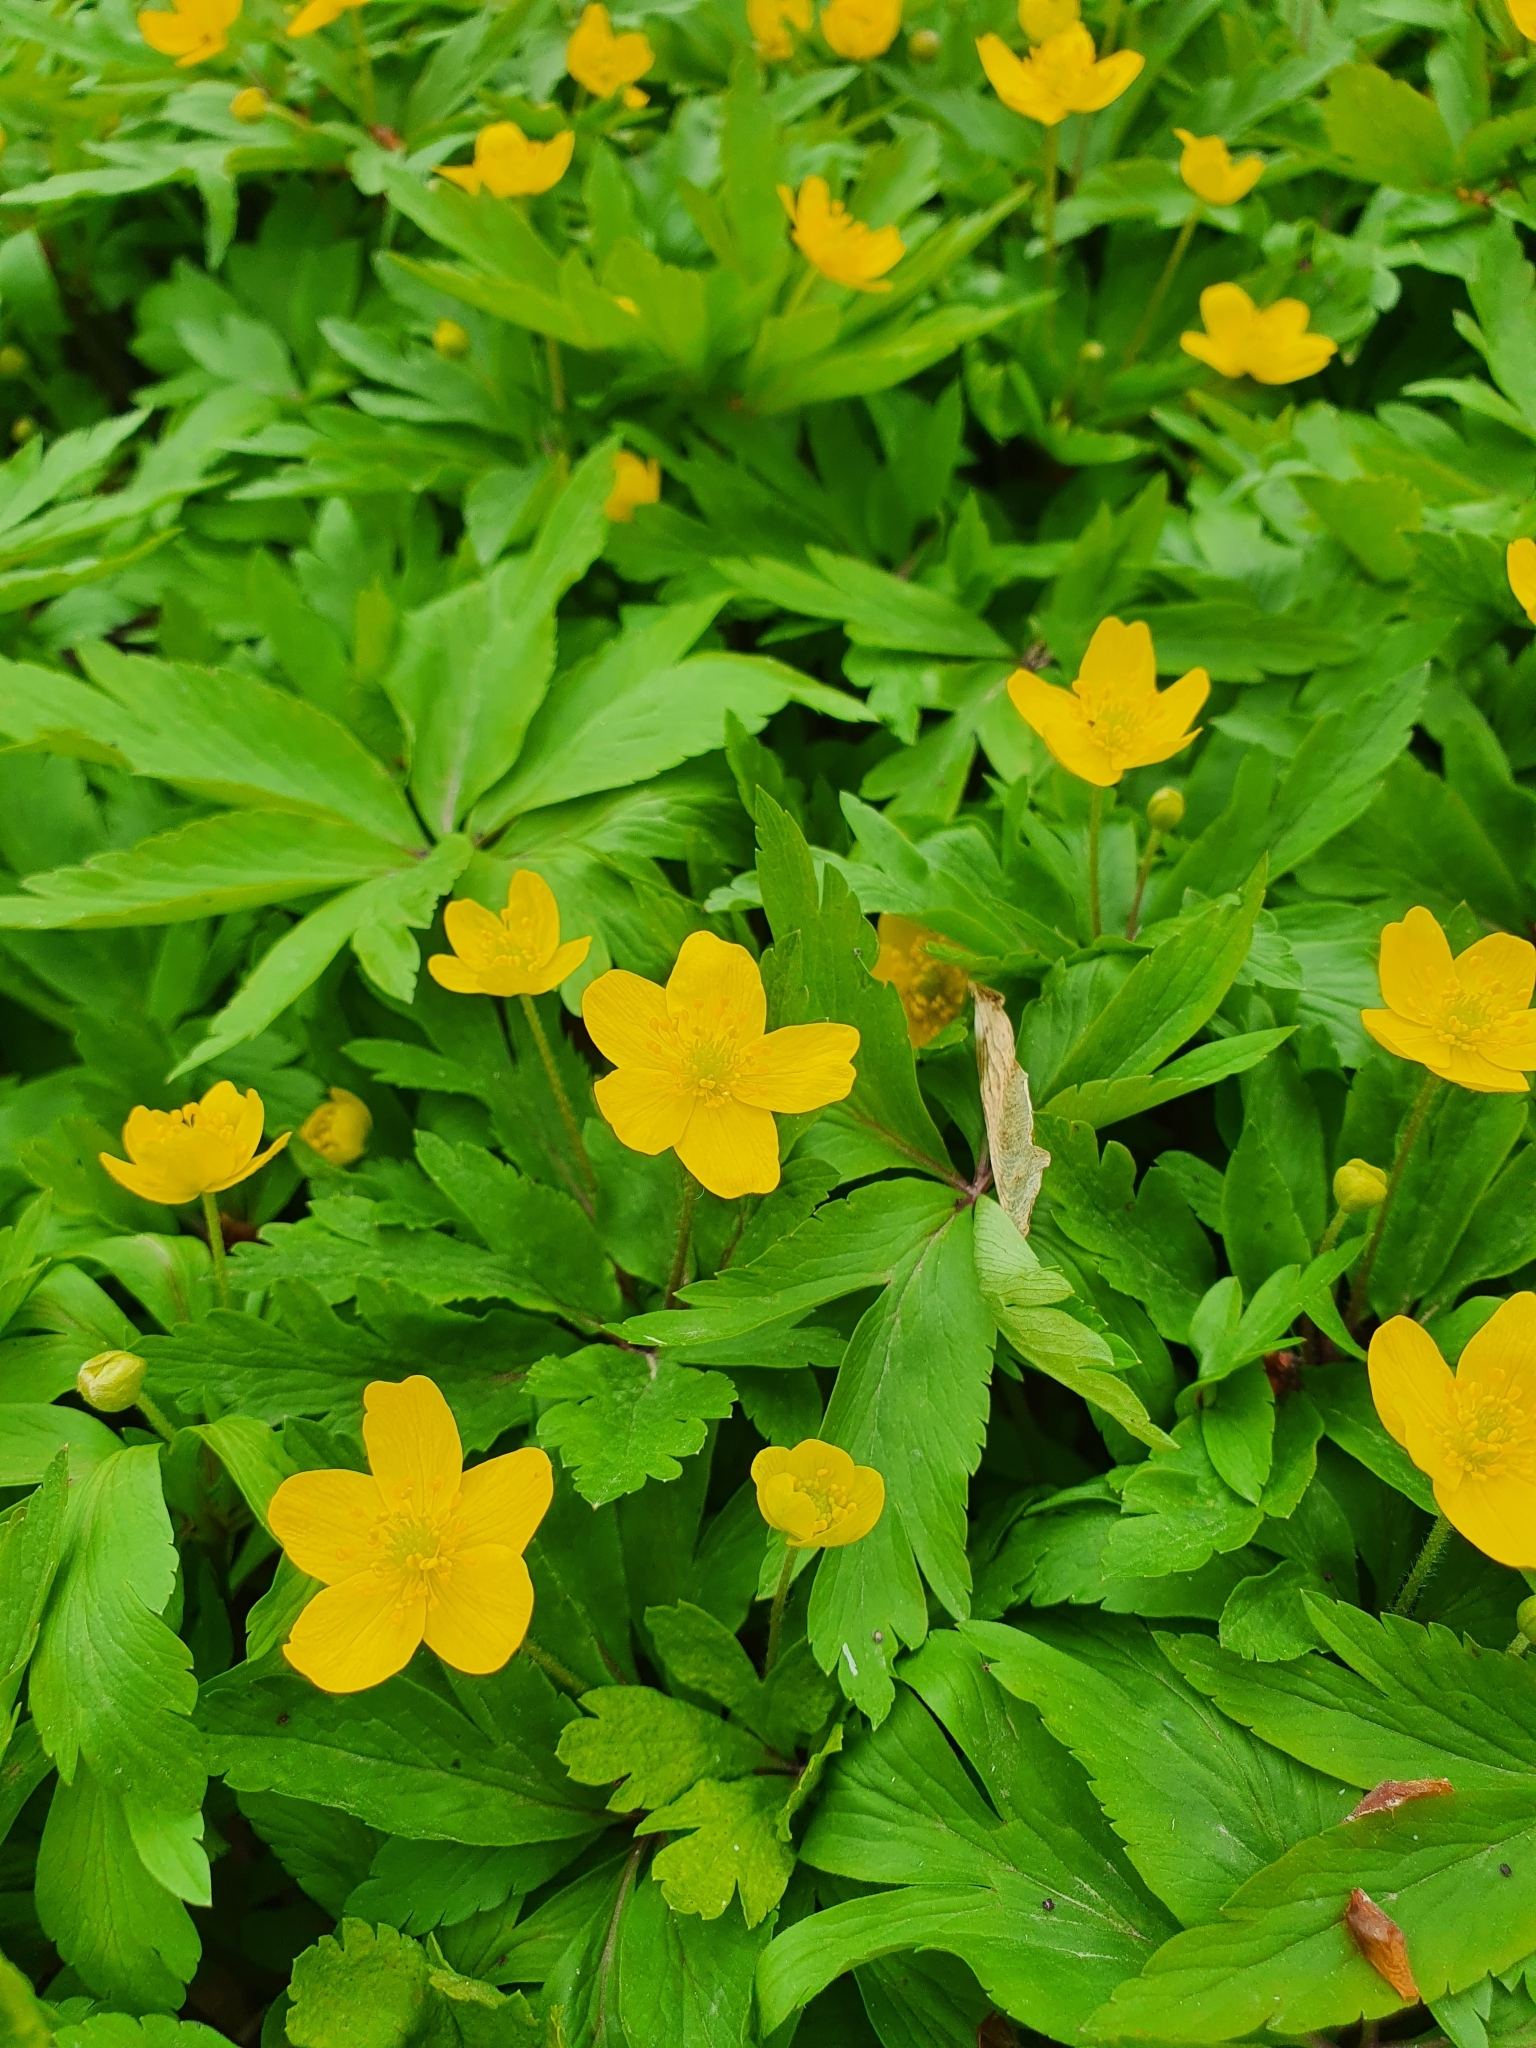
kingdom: Plantae
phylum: Tracheophyta
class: Magnoliopsida
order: Ranunculales
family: Ranunculaceae
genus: Anemone
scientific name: Anemone ranunculoides
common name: Yellow anemone
